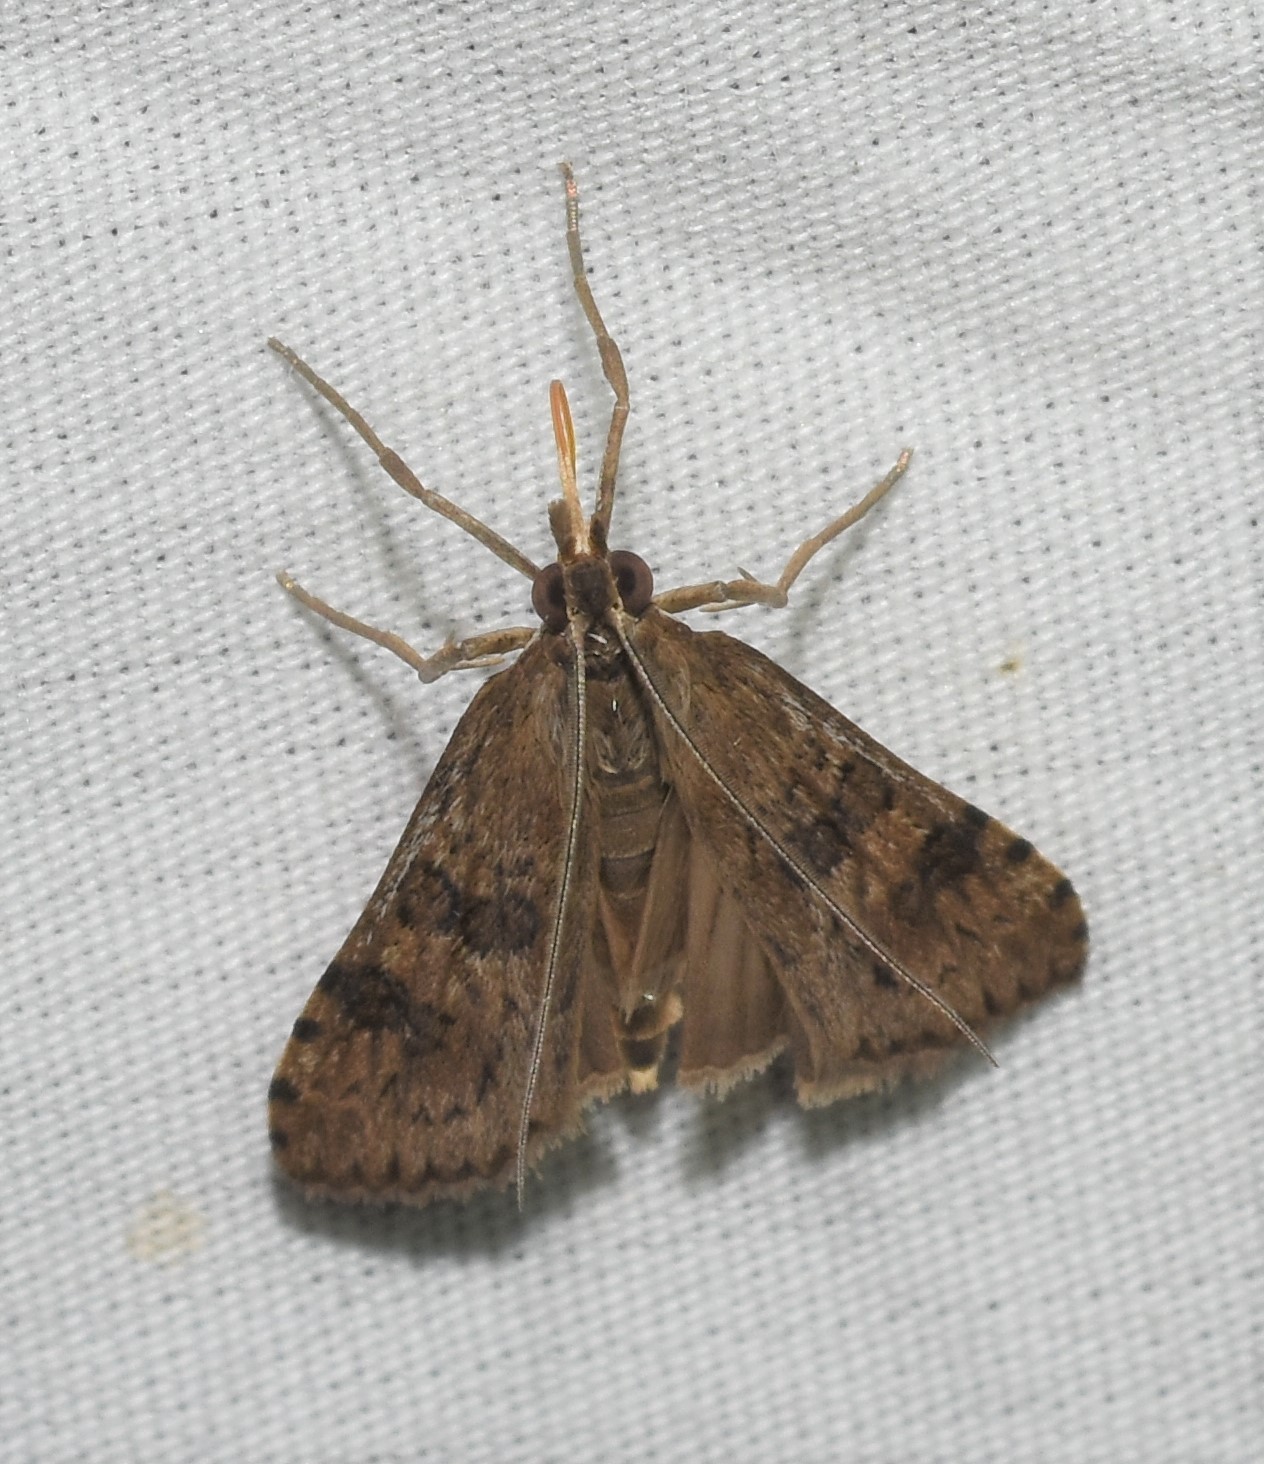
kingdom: Animalia
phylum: Arthropoda
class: Insecta
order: Lepidoptera
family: Crambidae
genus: Nomophila
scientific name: Nomophila nearctica
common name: American rush veneer
